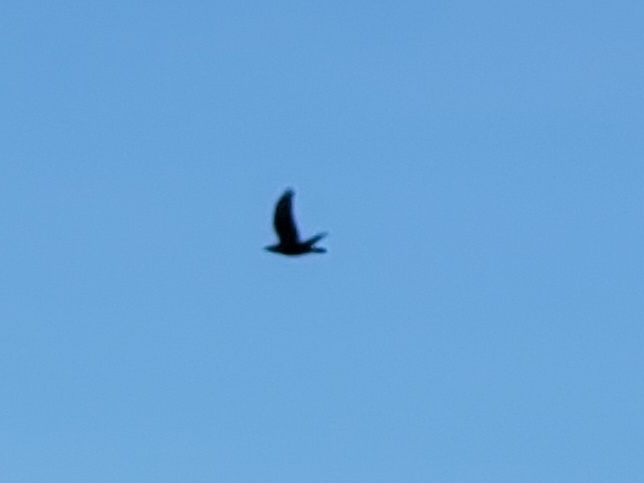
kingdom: Animalia
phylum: Chordata
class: Aves
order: Passeriformes
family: Corvidae
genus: Corvus
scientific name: Corvus corax
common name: Common raven
